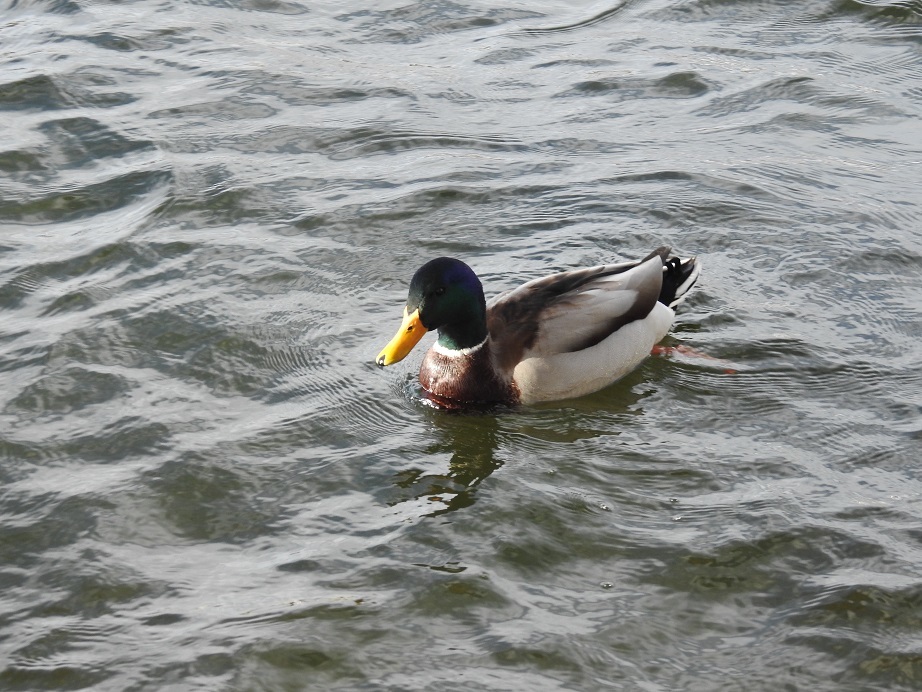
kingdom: Animalia
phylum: Chordata
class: Aves
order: Anseriformes
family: Anatidae
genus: Anas
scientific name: Anas platyrhynchos
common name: Mallard
